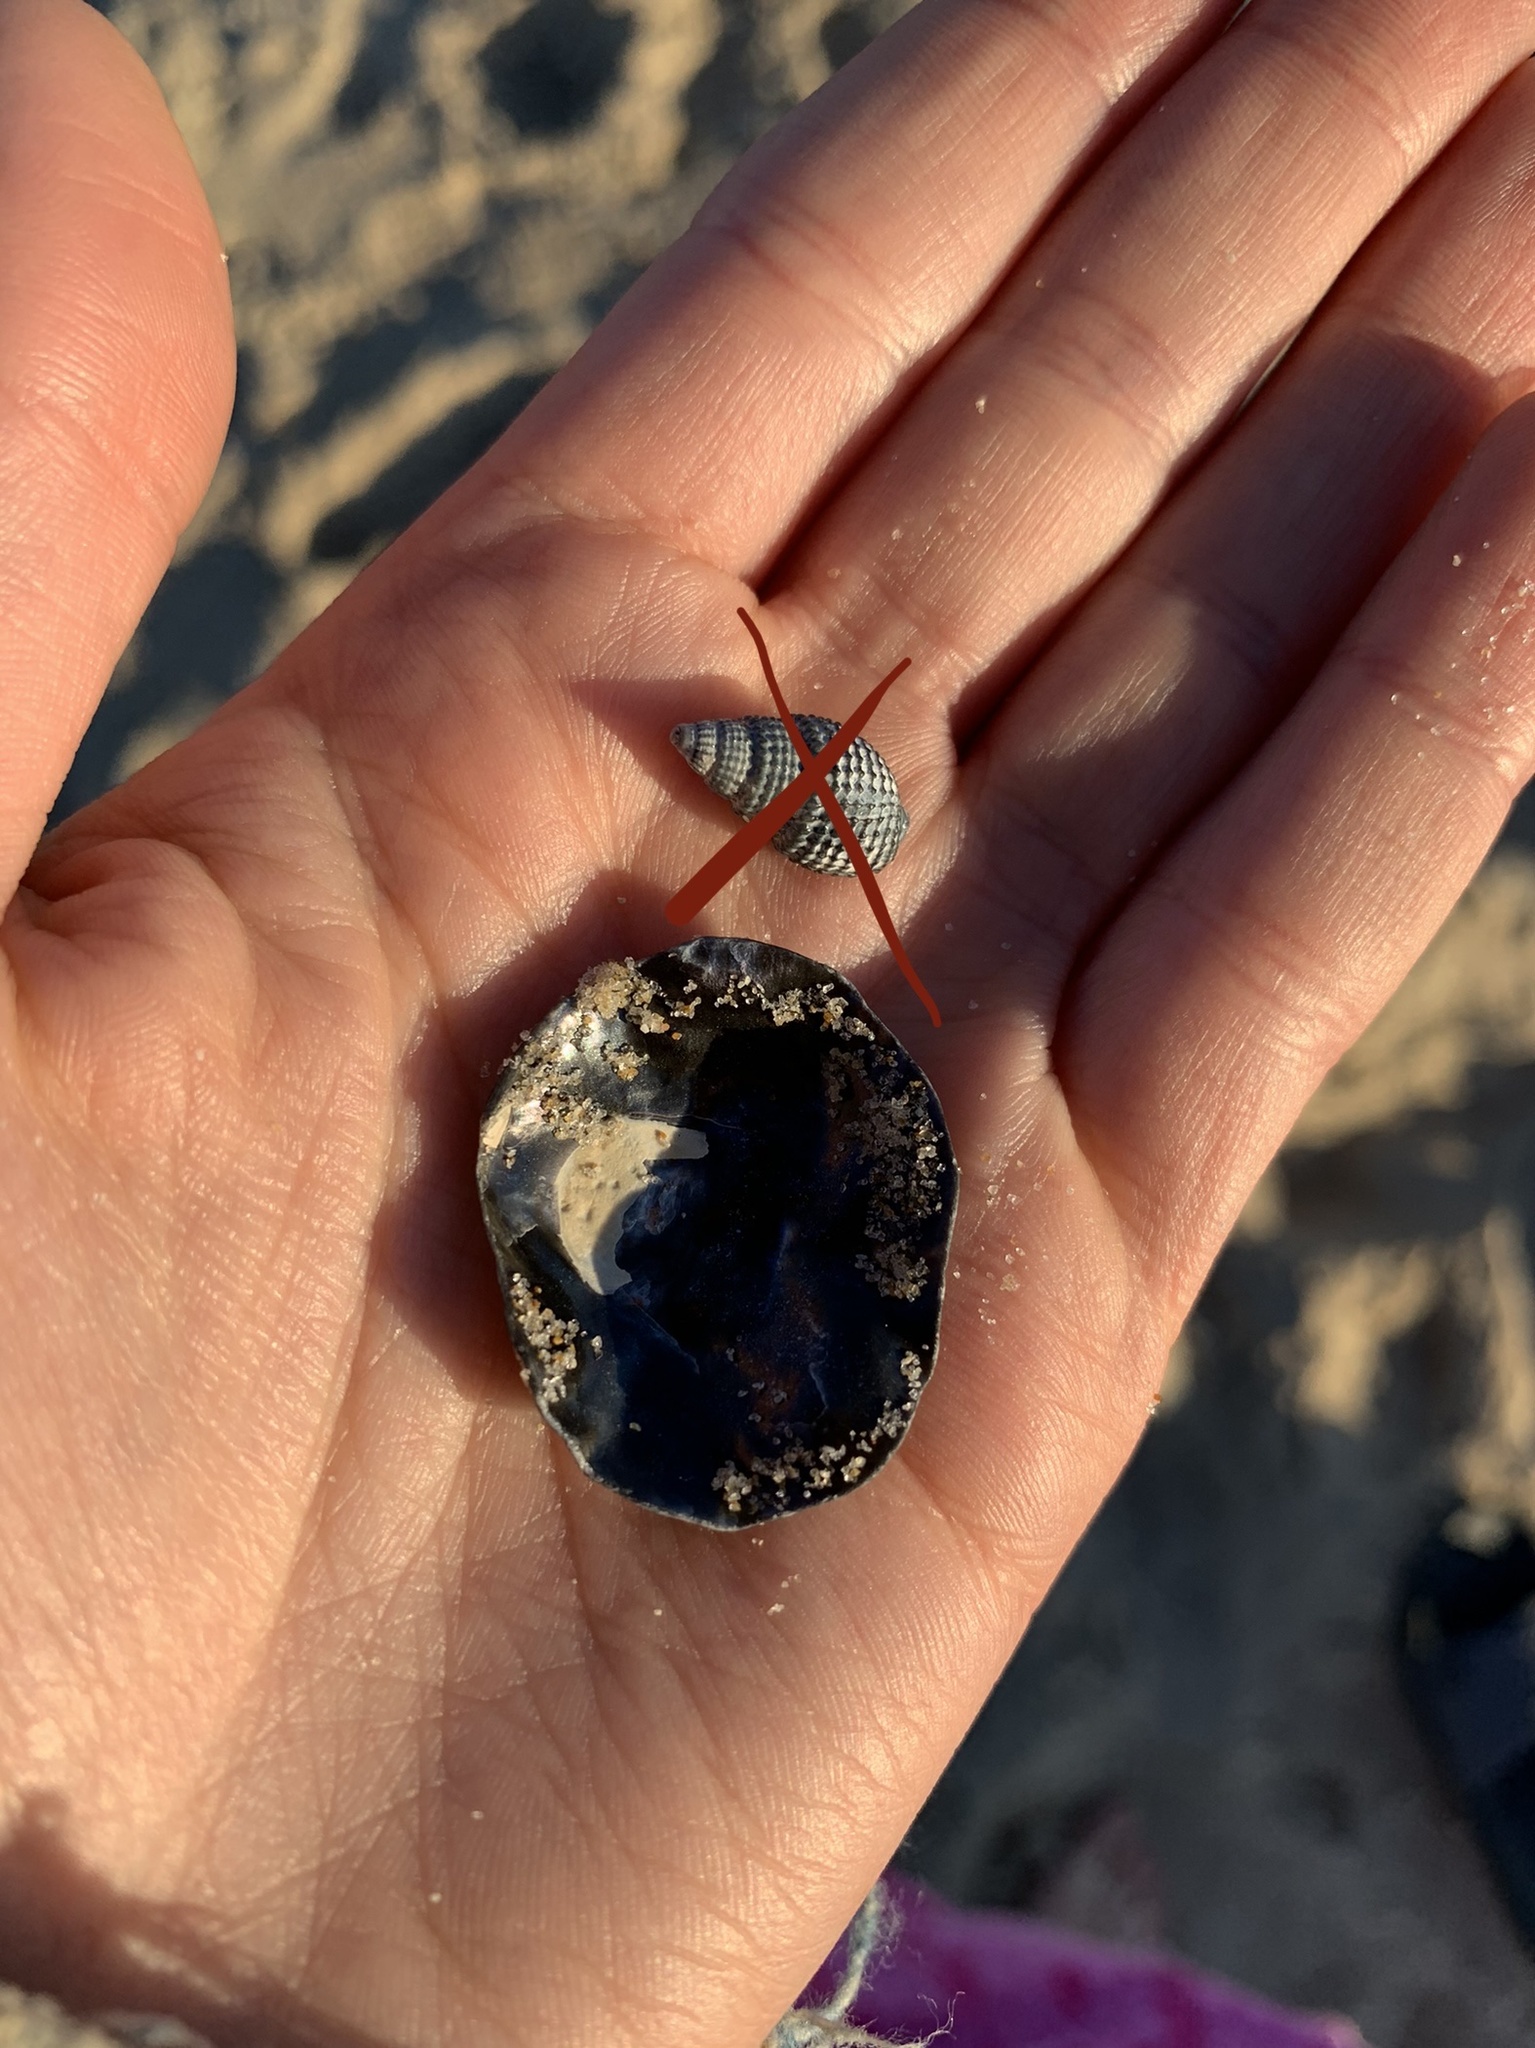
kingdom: Animalia
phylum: Mollusca
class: Bivalvia
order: Pectinida
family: Anomiidae
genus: Anomia
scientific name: Anomia simplex
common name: Common jingle shell
